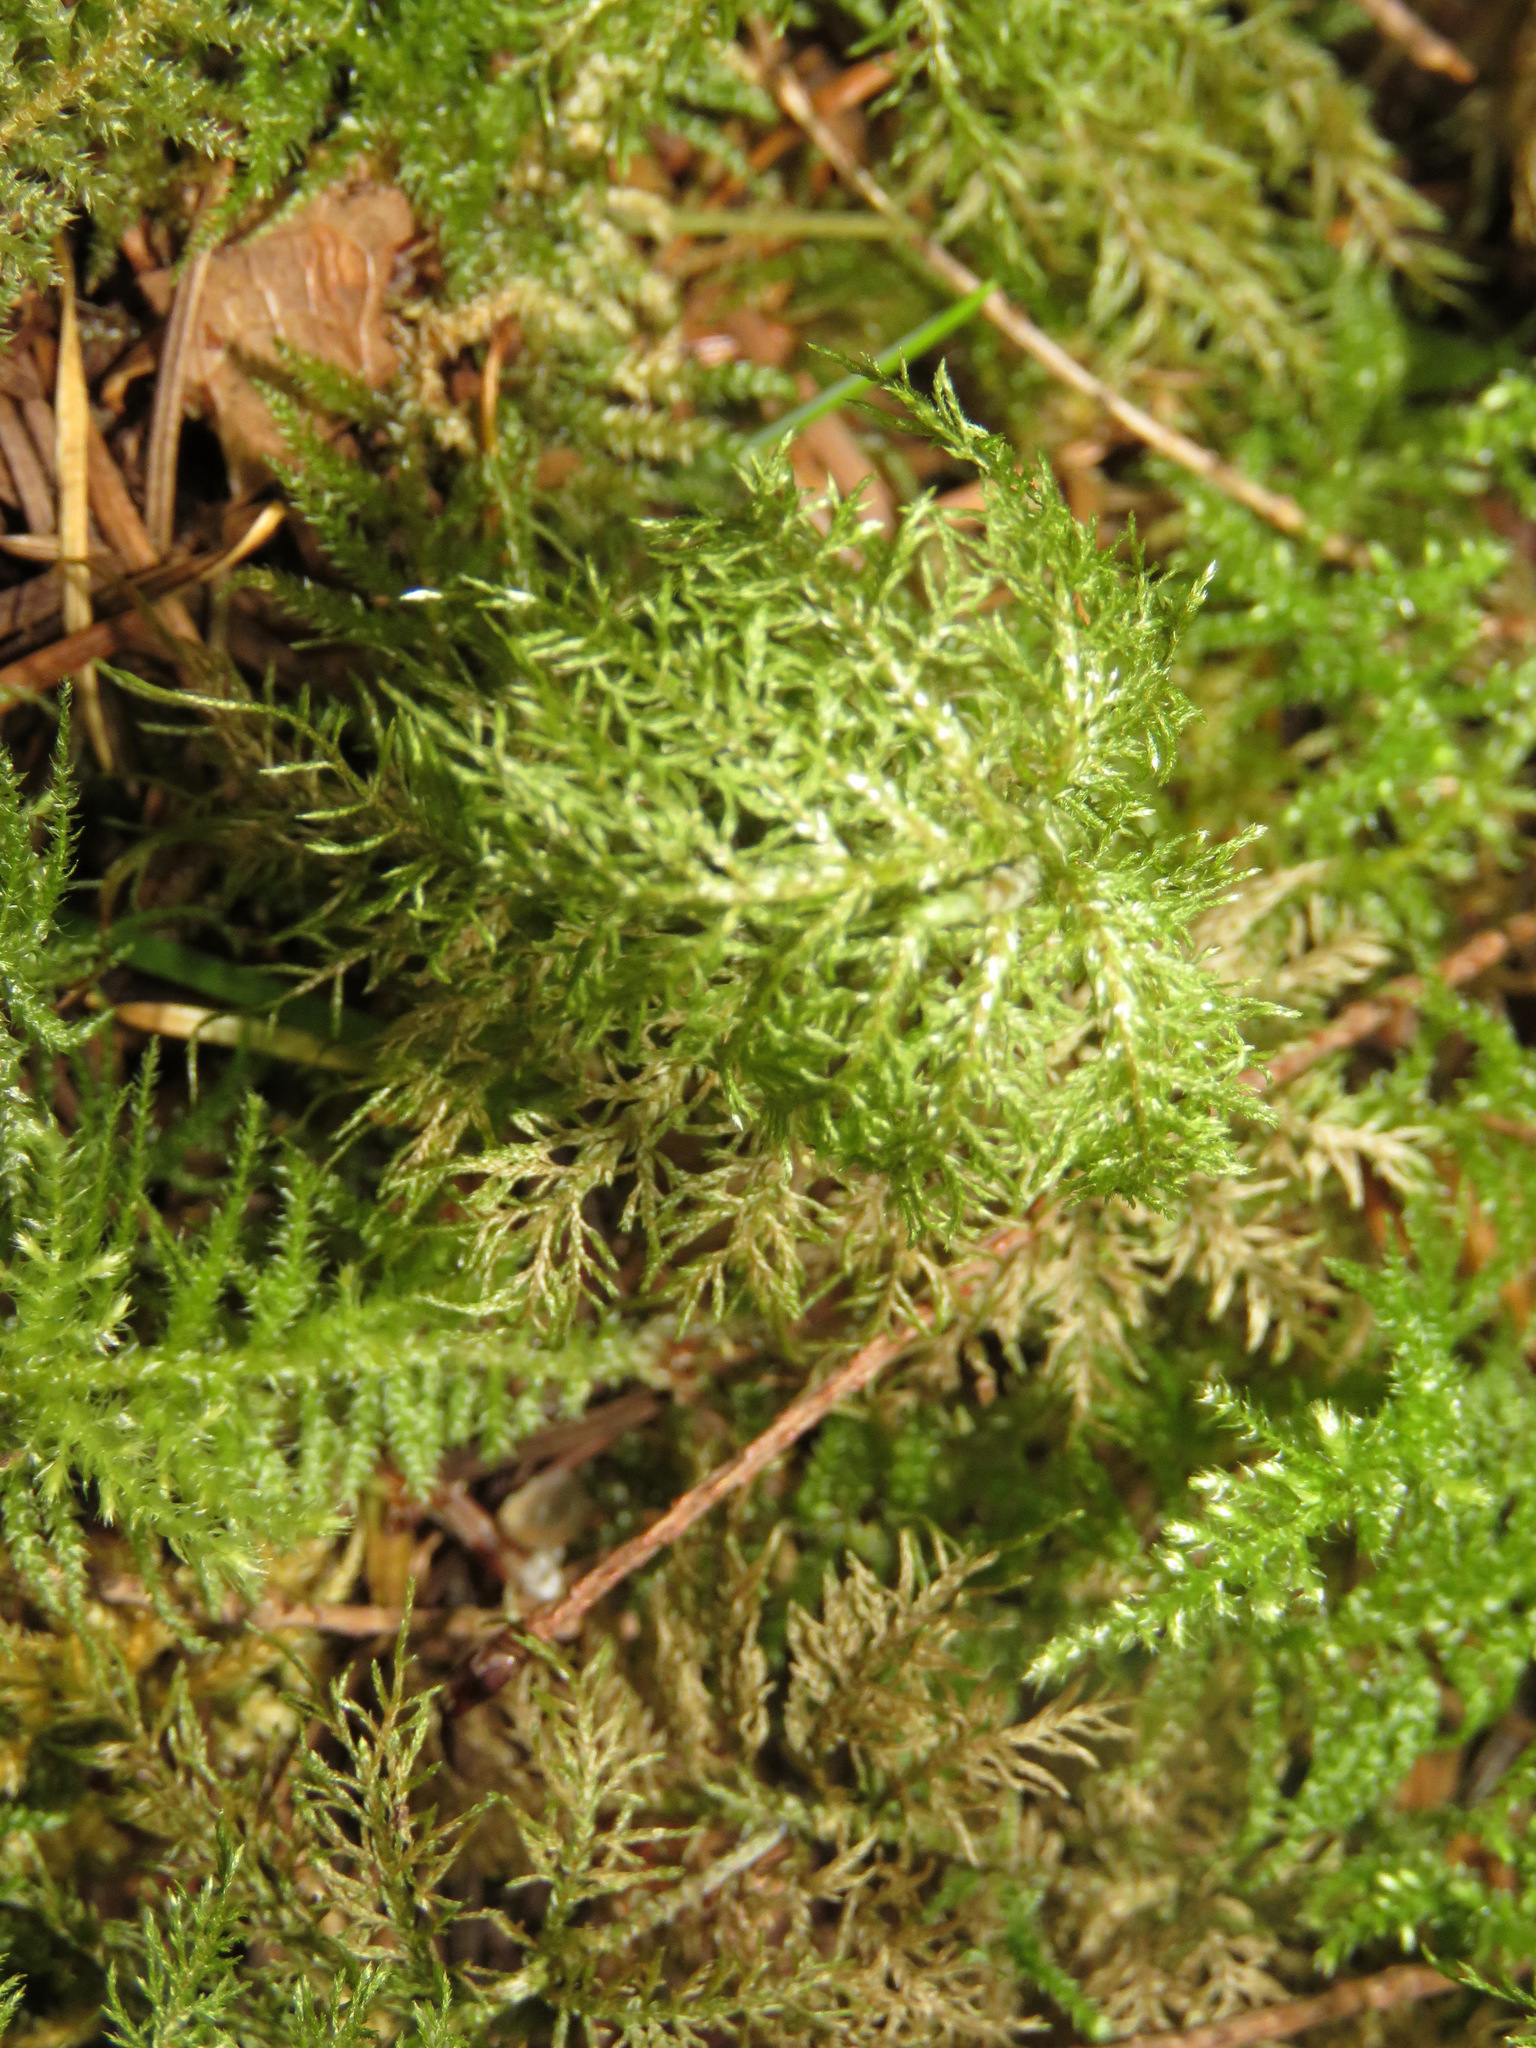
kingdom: Plantae
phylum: Bryophyta
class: Bryopsida
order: Hypnales
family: Hylocomiaceae
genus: Hylocomium
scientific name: Hylocomium splendens
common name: Stairstep moss
